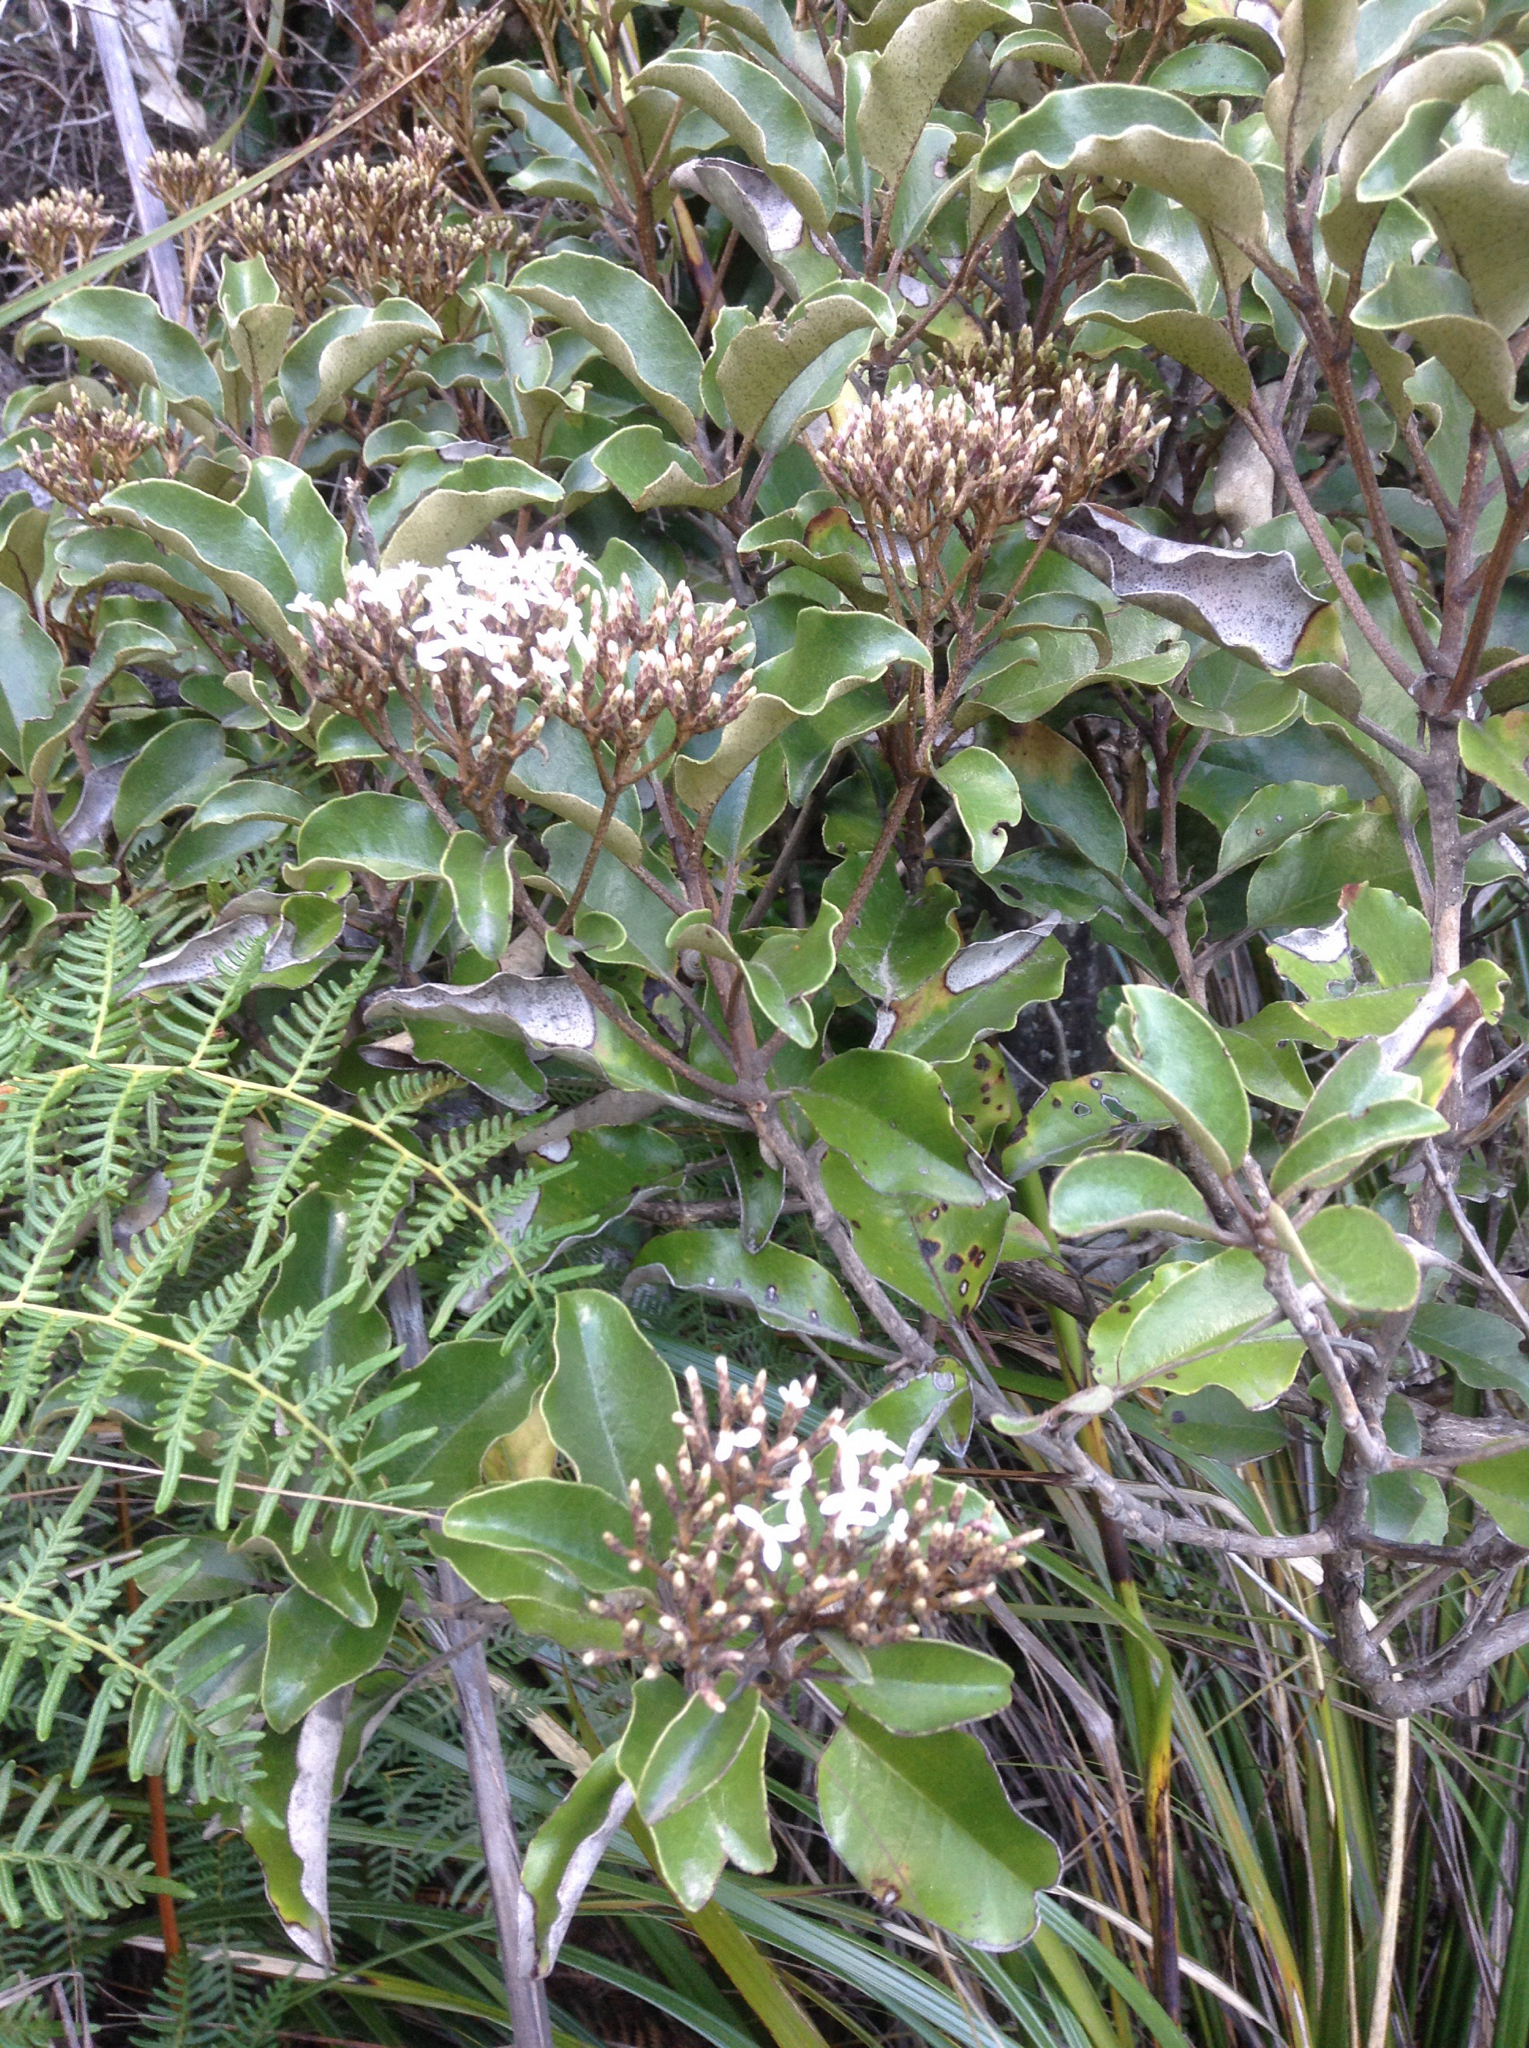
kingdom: Plantae
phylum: Tracheophyta
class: Magnoliopsida
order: Asterales
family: Asteraceae
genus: Olearia
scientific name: Olearia furfuracea
